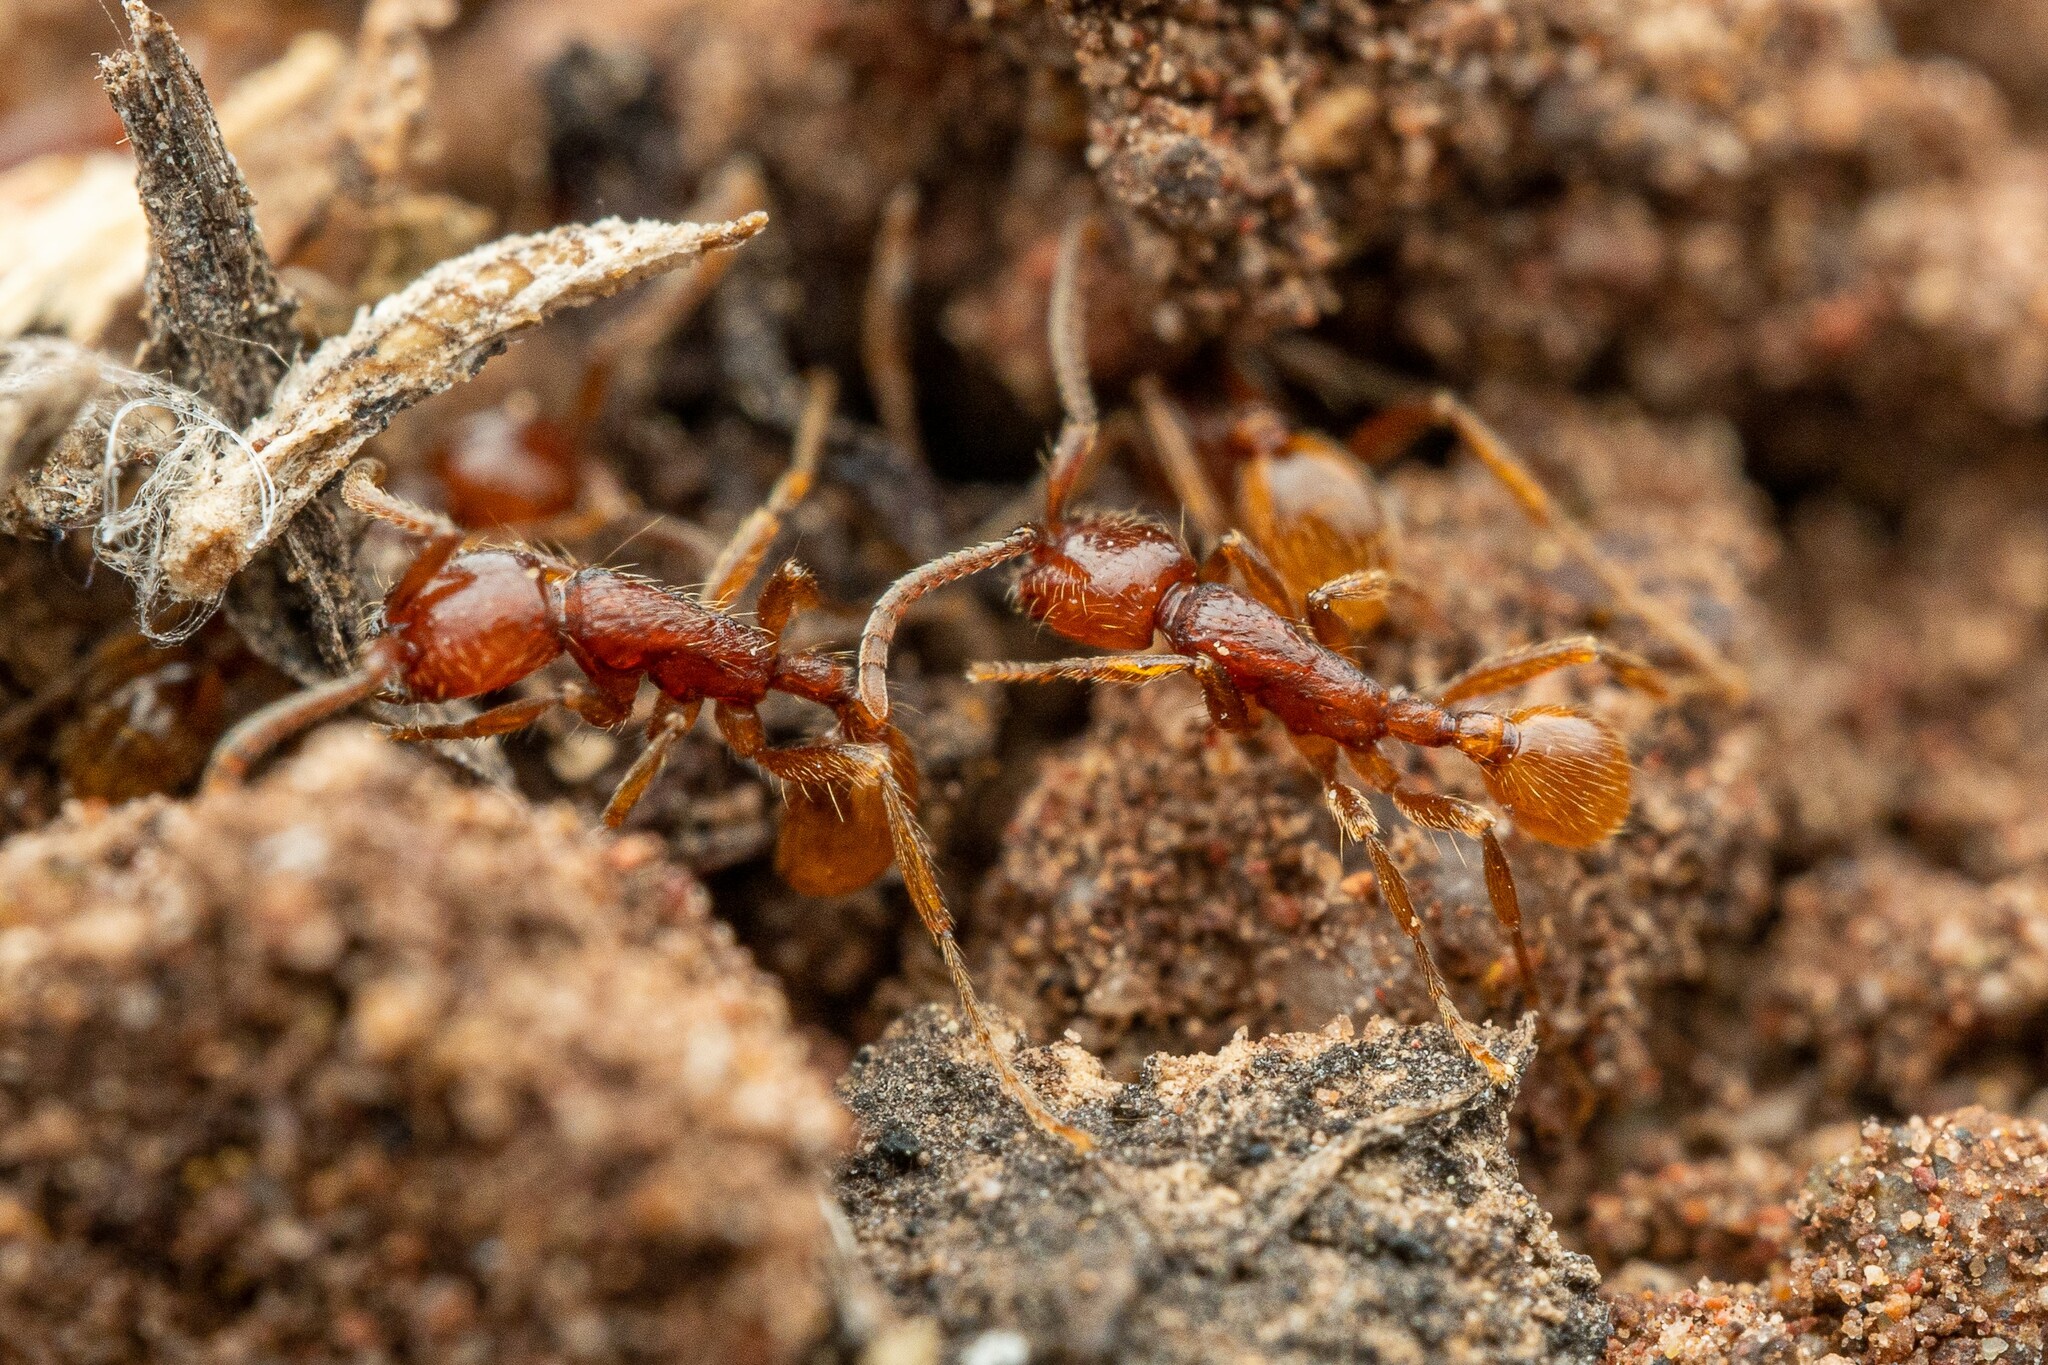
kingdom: Animalia
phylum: Arthropoda
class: Insecta
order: Hymenoptera
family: Formicidae
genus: Neivamyrmex
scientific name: Neivamyrmex opacithorax
